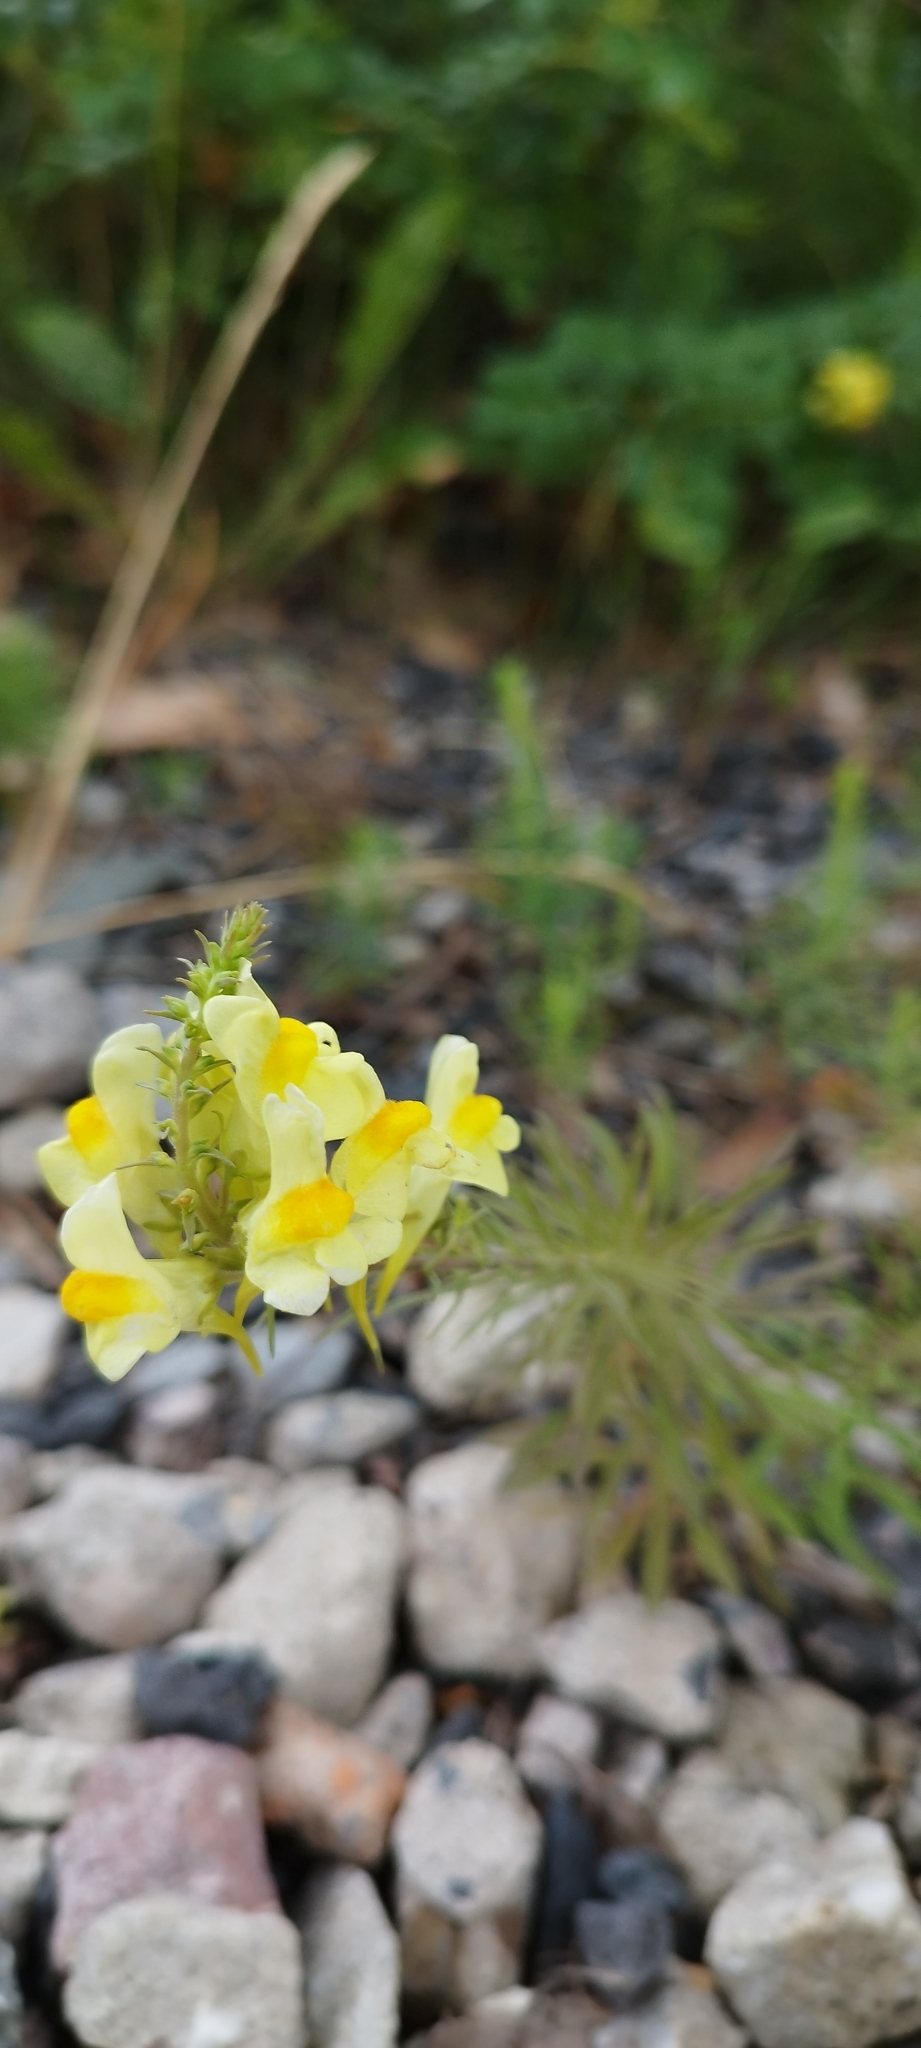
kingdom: Plantae
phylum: Tracheophyta
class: Magnoliopsida
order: Lamiales
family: Plantaginaceae
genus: Linaria
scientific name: Linaria vulgaris
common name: Butter and eggs
